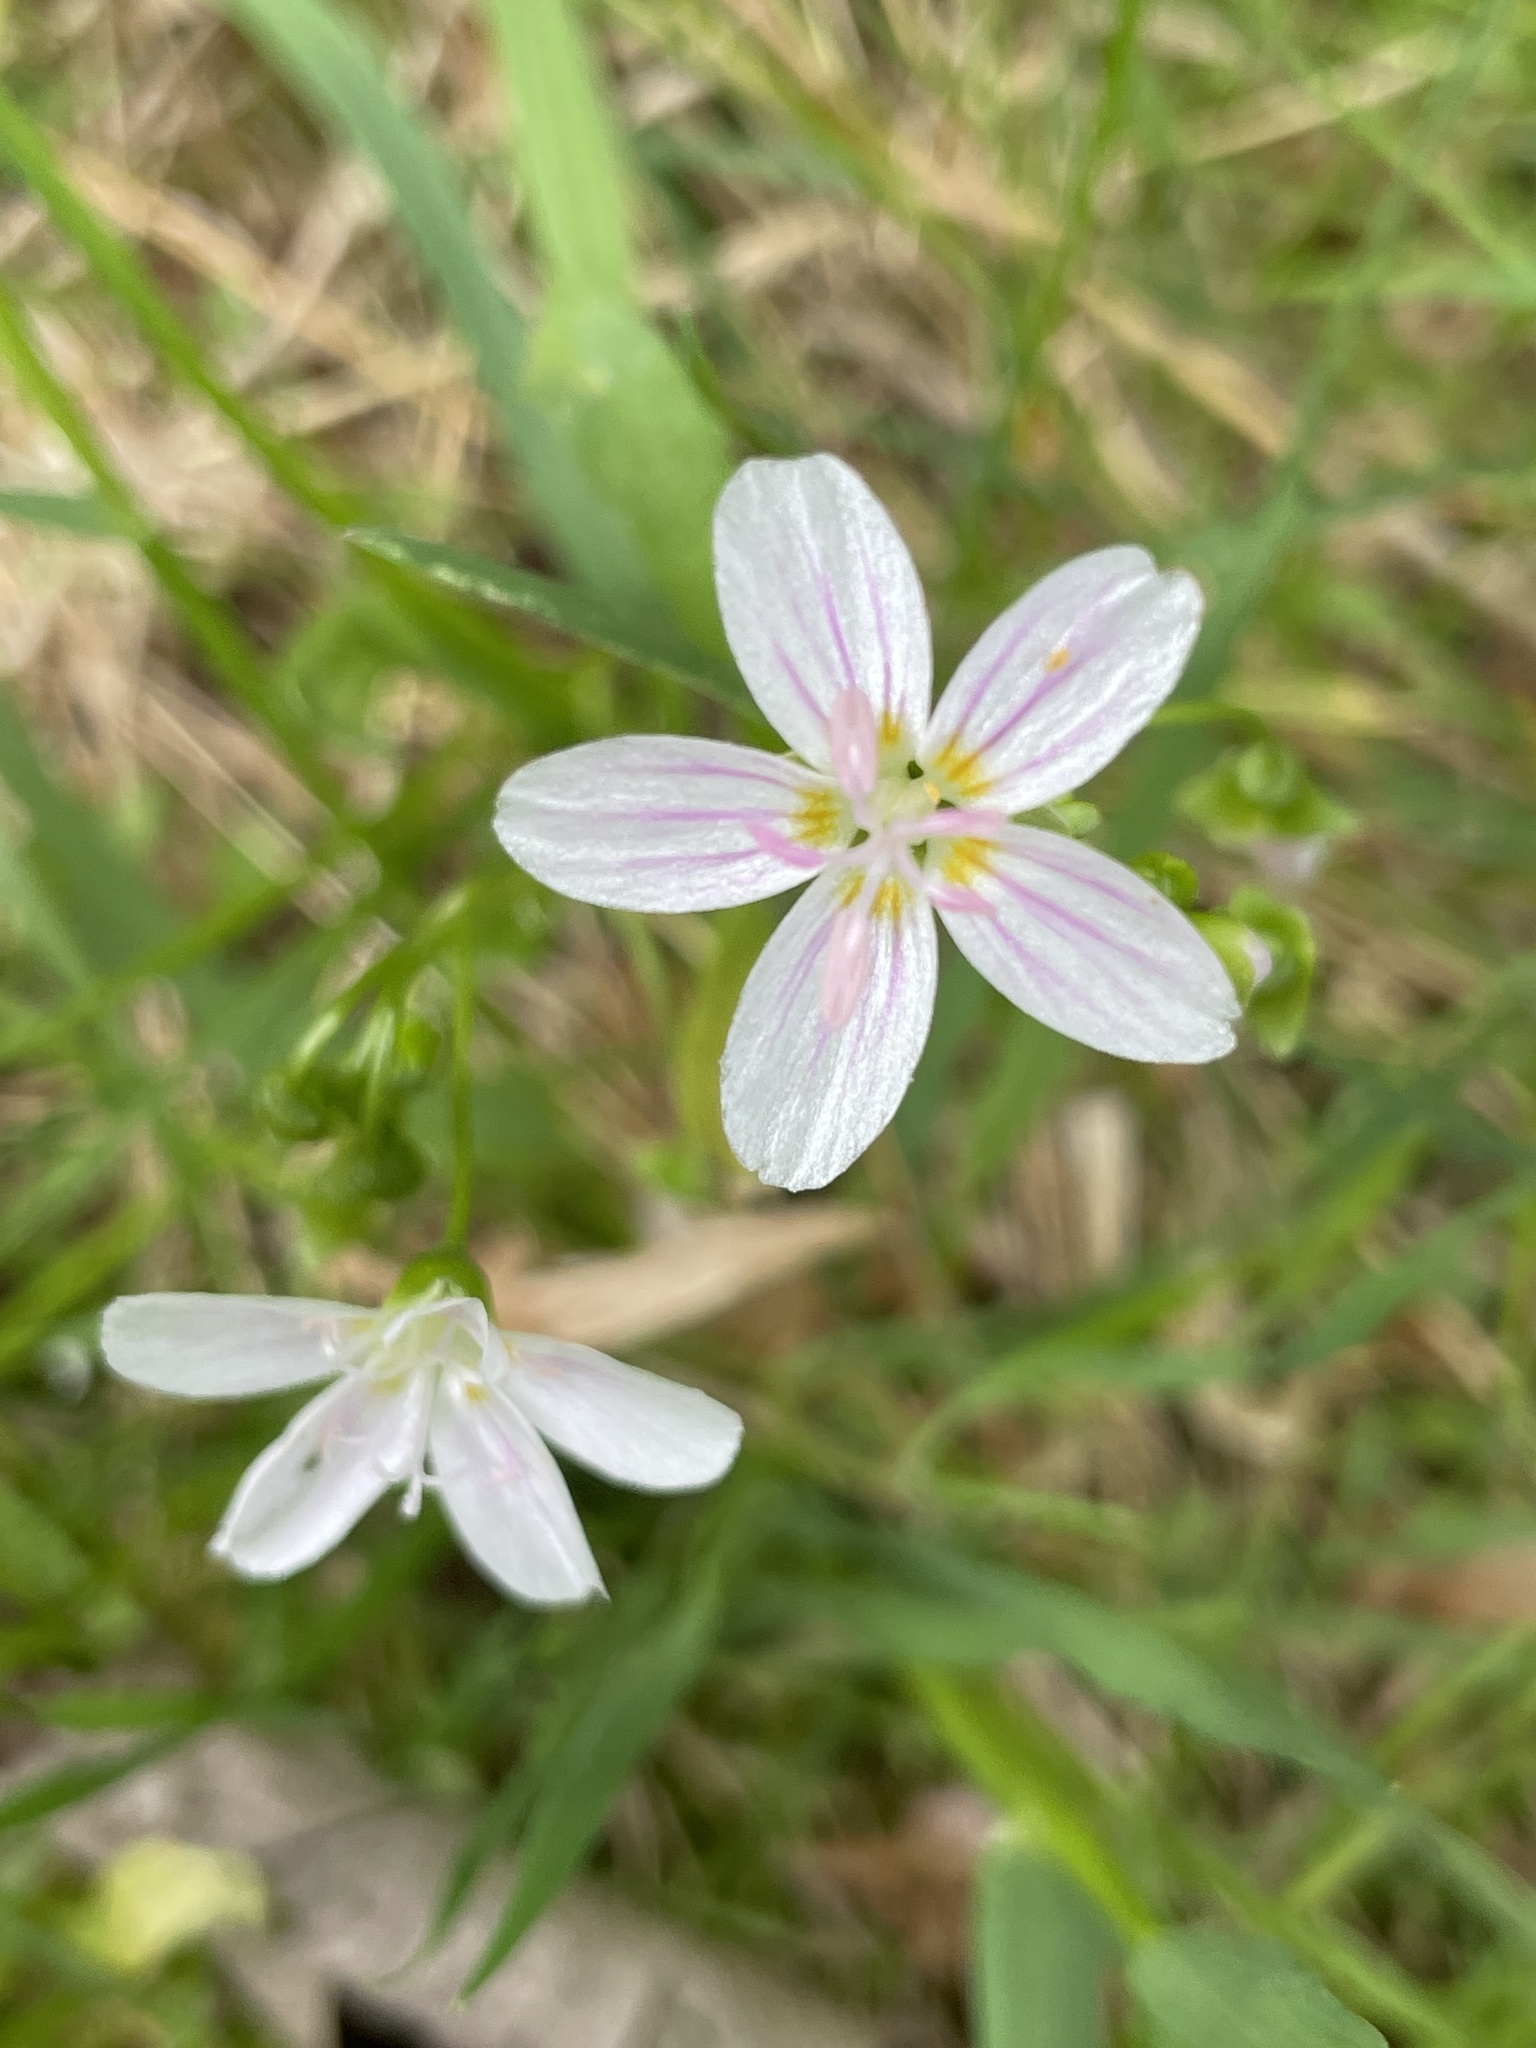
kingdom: Plantae
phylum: Tracheophyta
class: Magnoliopsida
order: Caryophyllales
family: Montiaceae
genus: Claytonia
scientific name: Claytonia virginica
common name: Virginia springbeauty
